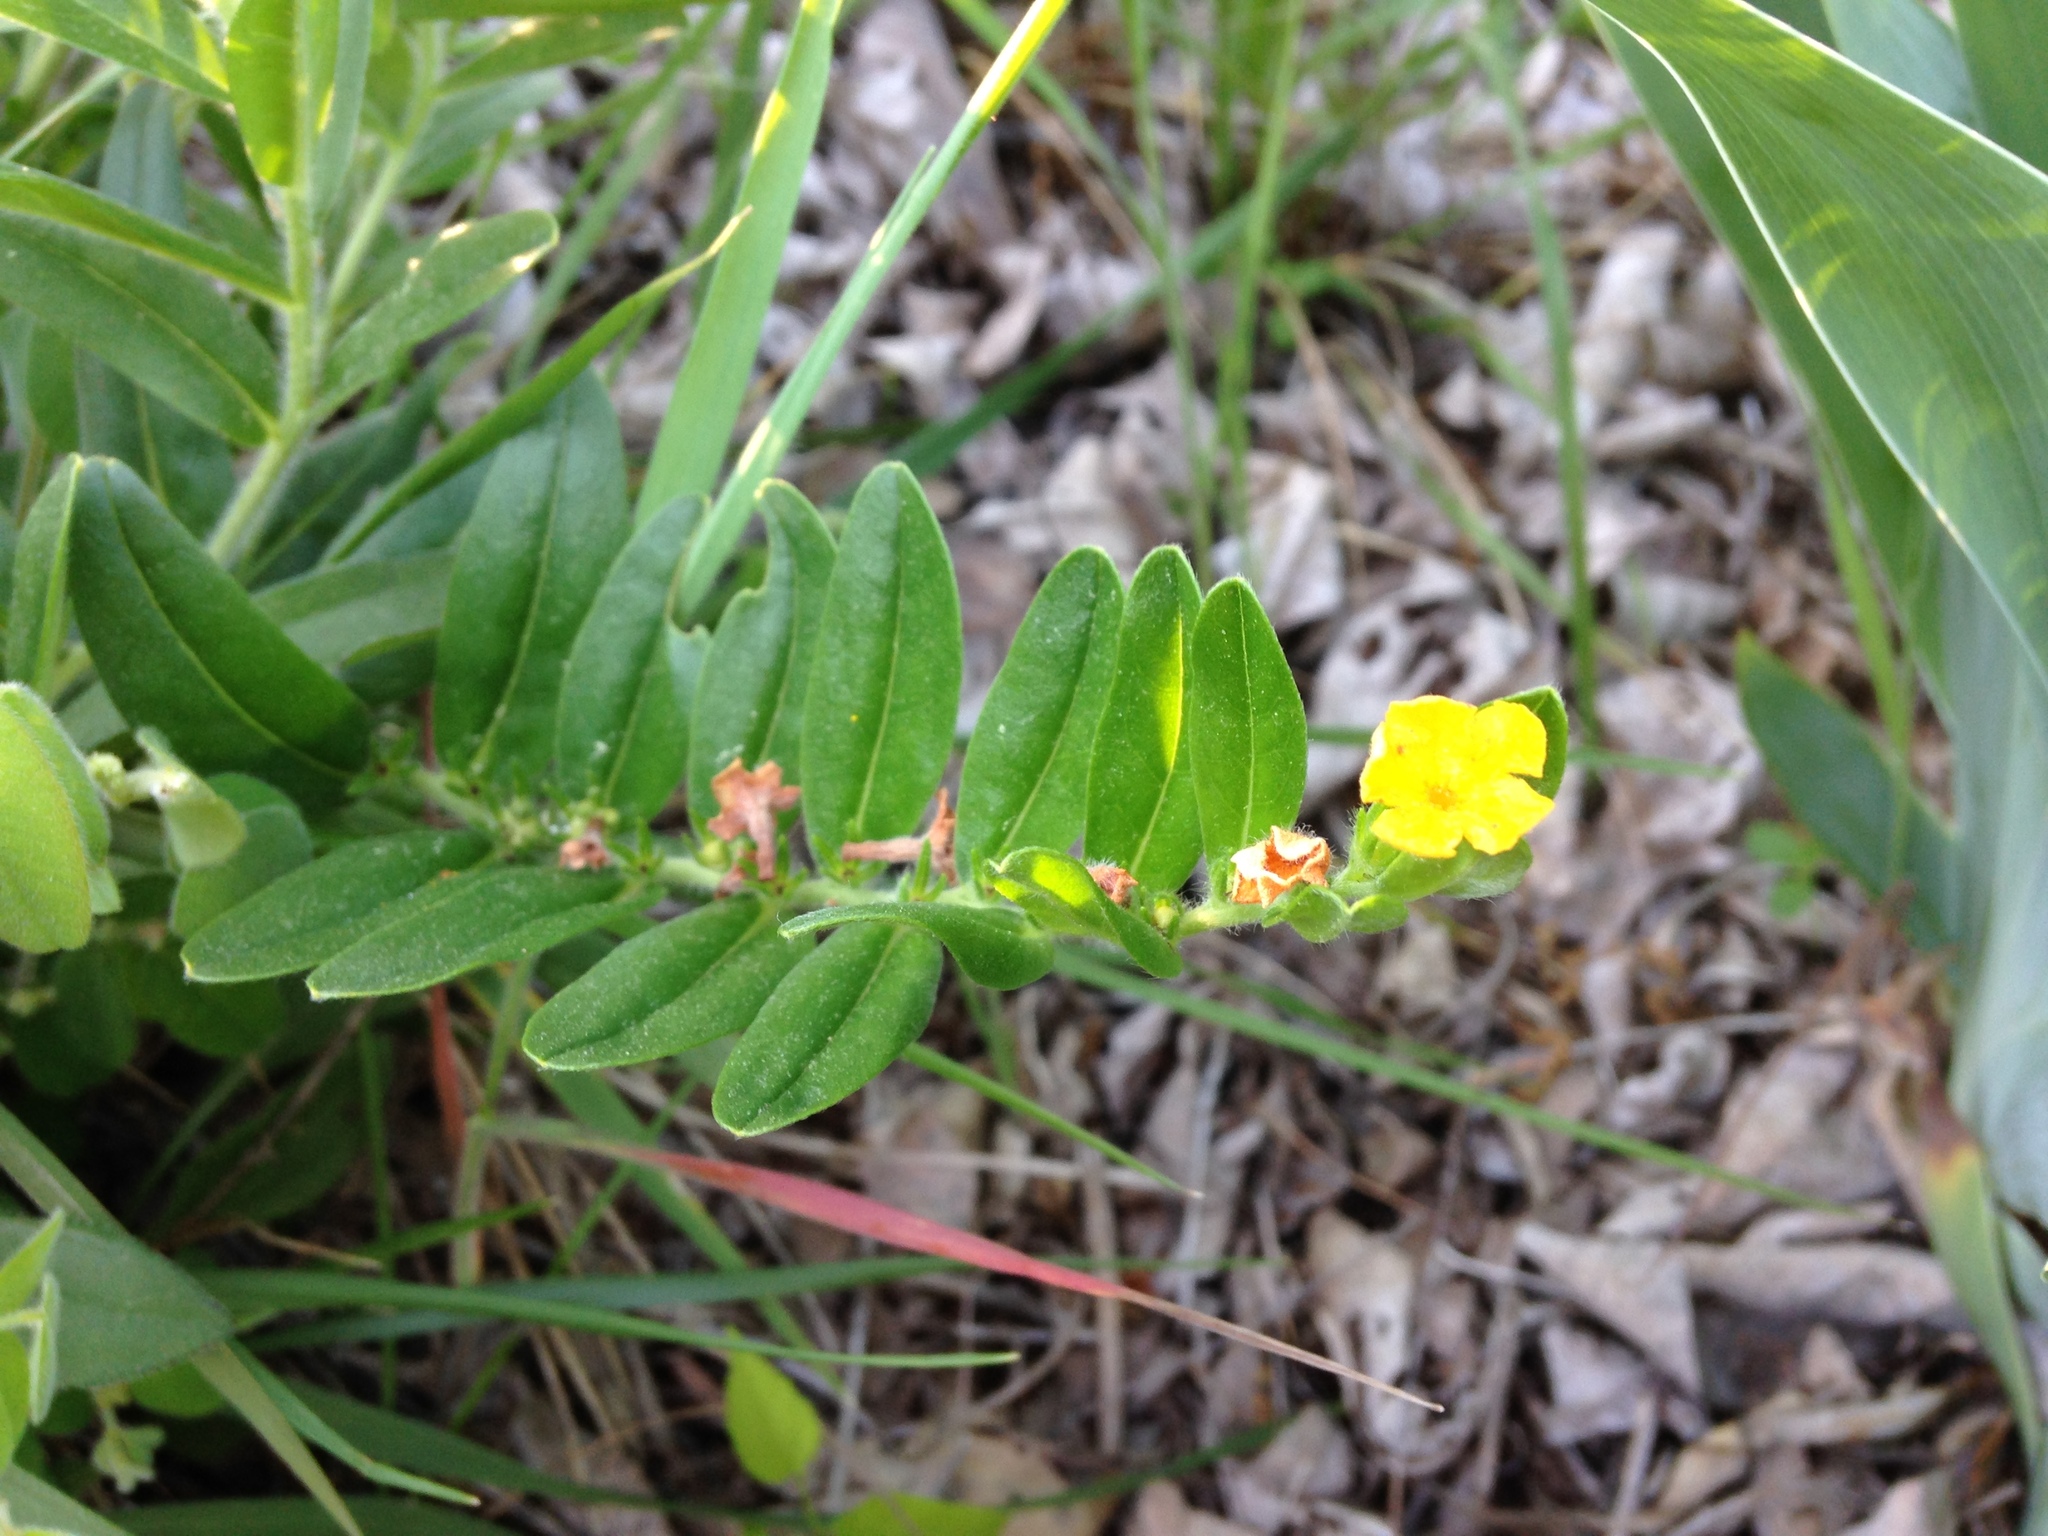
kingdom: Plantae
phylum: Tracheophyta
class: Magnoliopsida
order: Boraginales
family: Boraginaceae
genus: Lithospermum
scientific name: Lithospermum canescens
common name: Hoary puccoon
